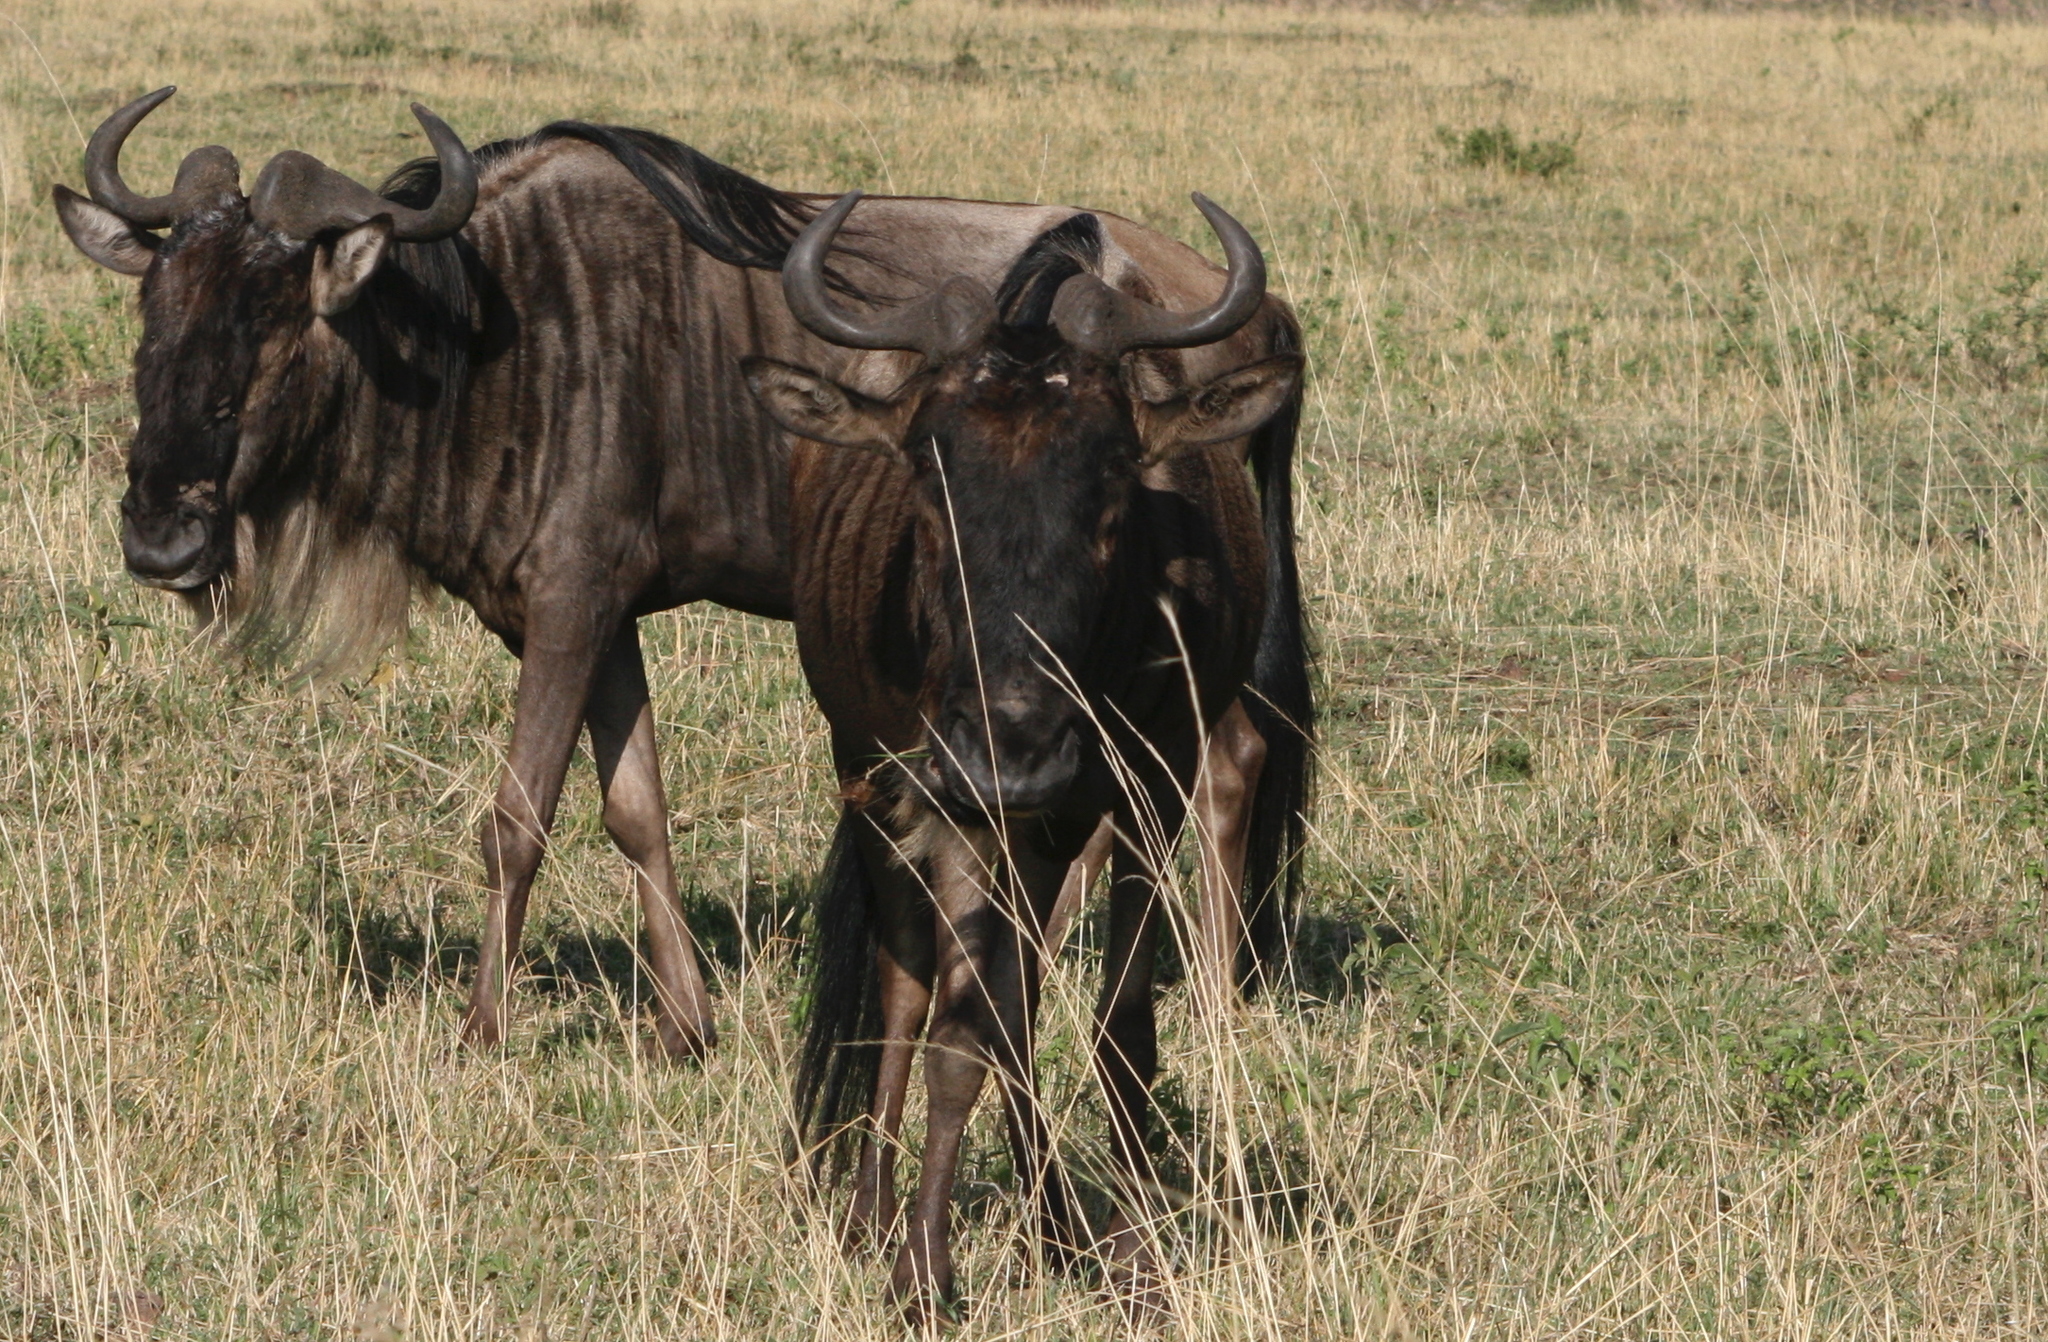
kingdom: Animalia
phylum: Chordata
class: Mammalia
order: Artiodactyla
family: Bovidae
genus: Connochaetes
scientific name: Connochaetes taurinus
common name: Blue wildebeest
